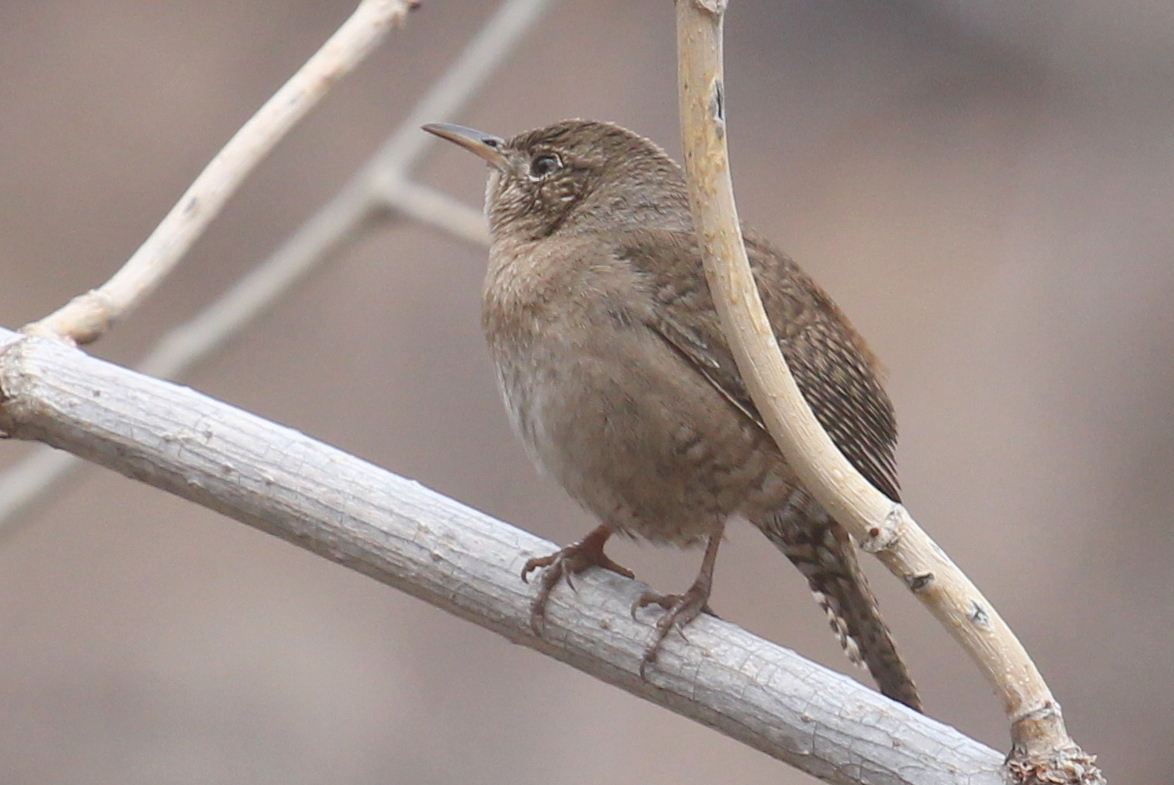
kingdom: Animalia
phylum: Chordata
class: Aves
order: Passeriformes
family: Troglodytidae
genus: Troglodytes
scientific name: Troglodytes aedon
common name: House wren
